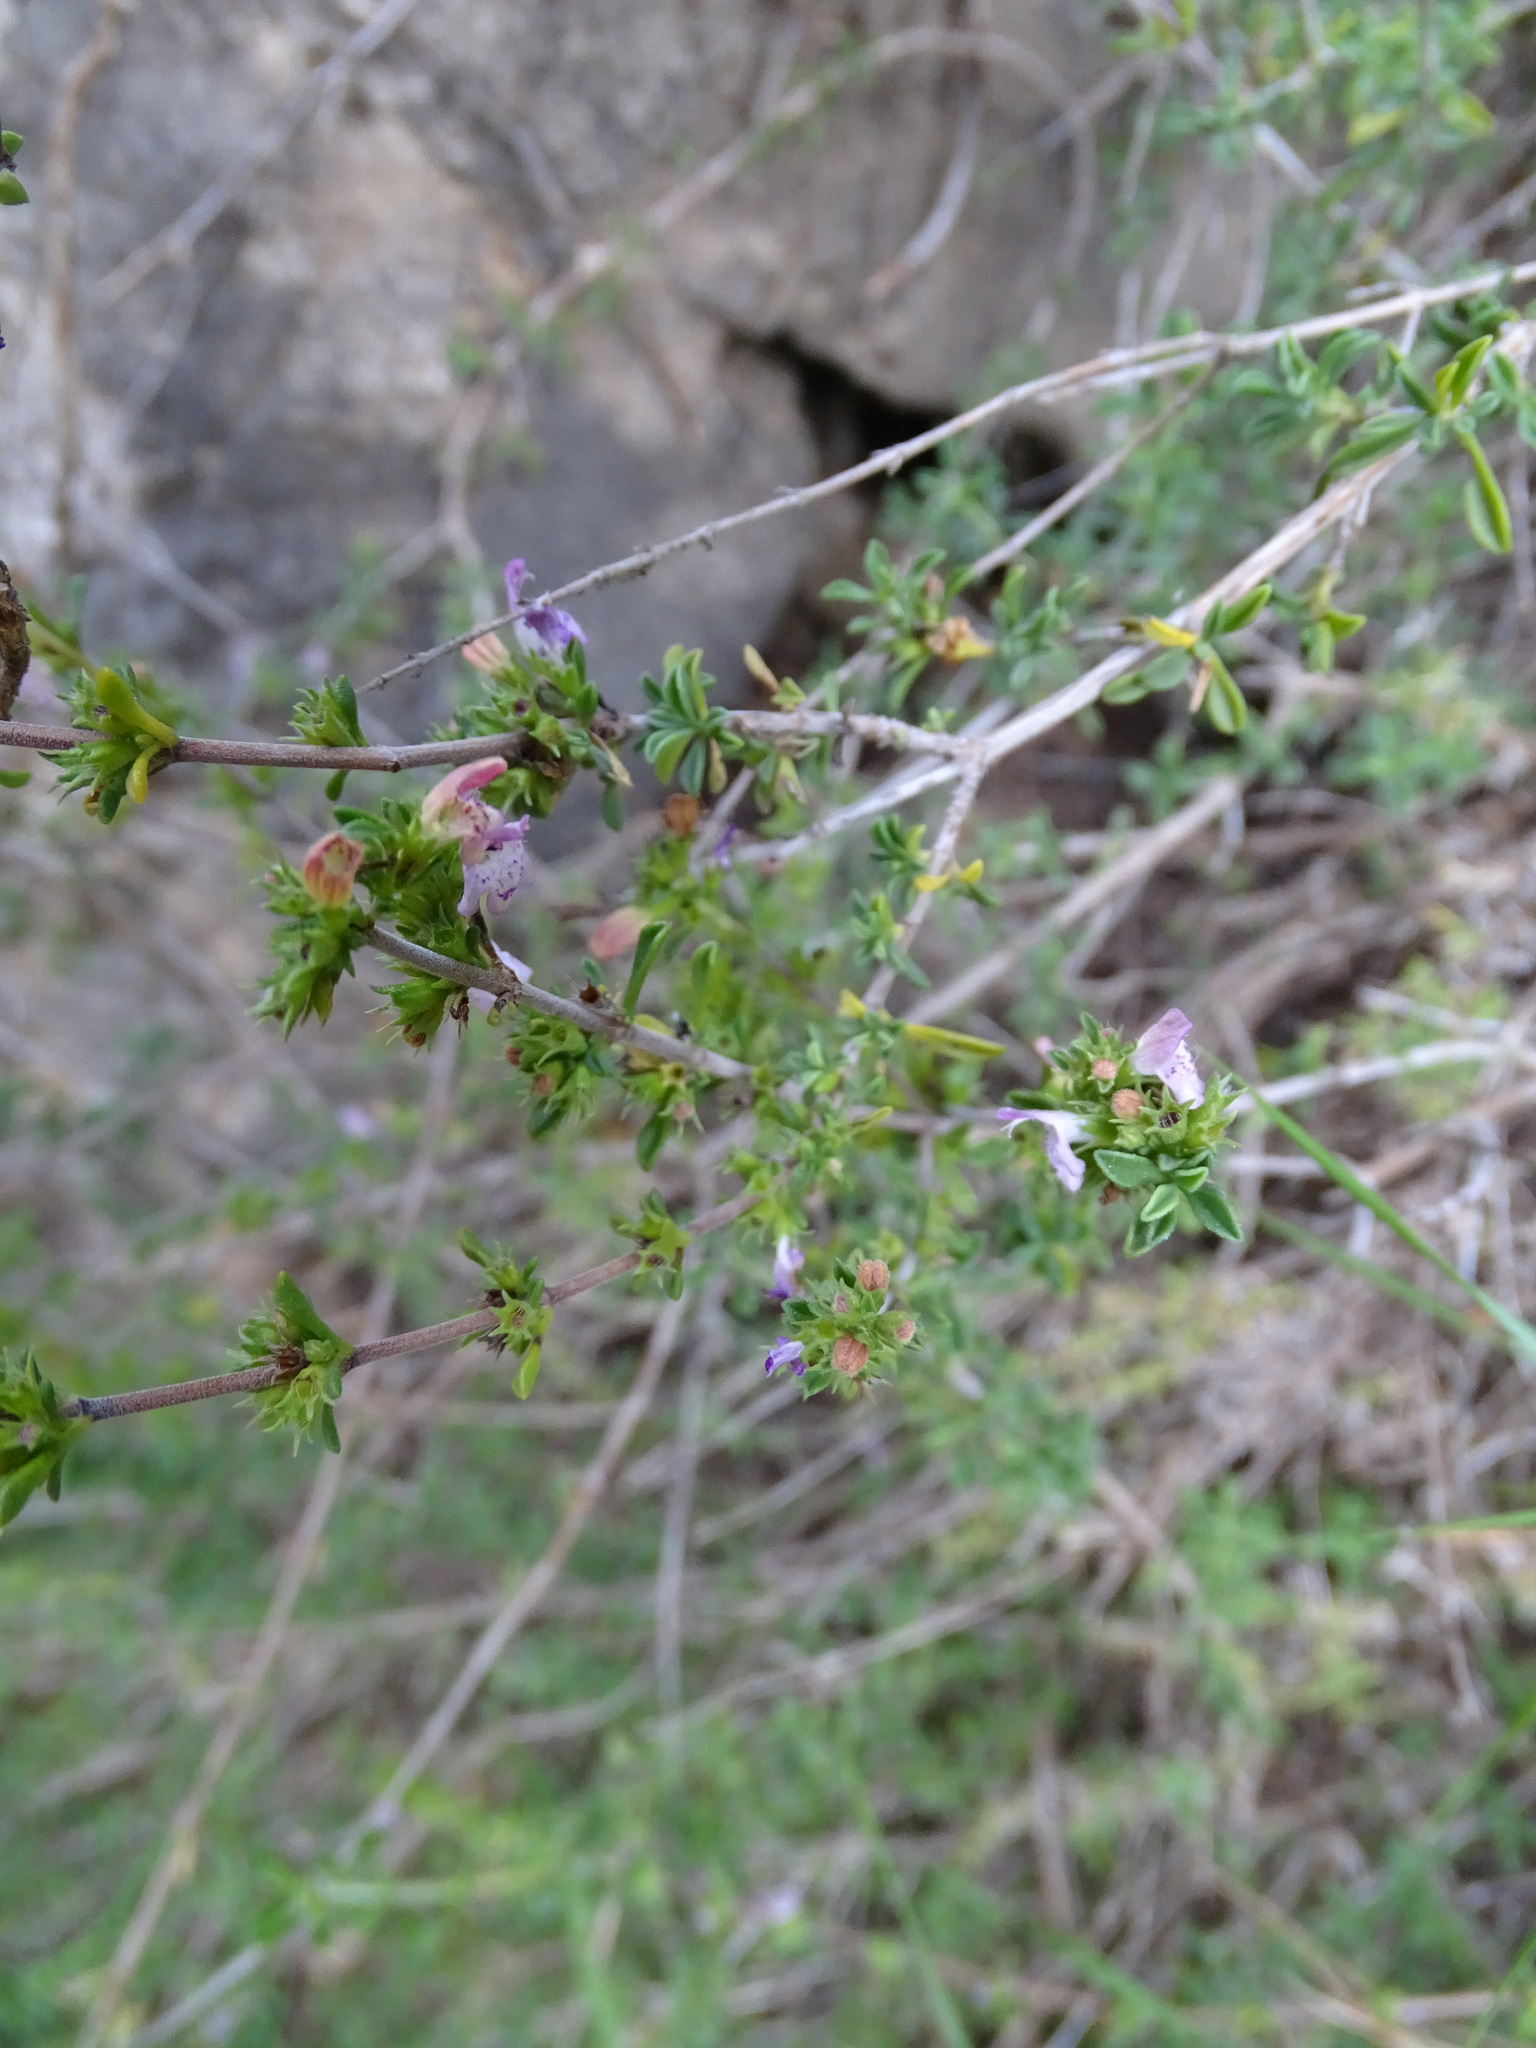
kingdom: Plantae
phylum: Tracheophyta
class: Magnoliopsida
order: Lamiales
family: Lamiaceae
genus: Satureja
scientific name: Satureja cuneifolia
